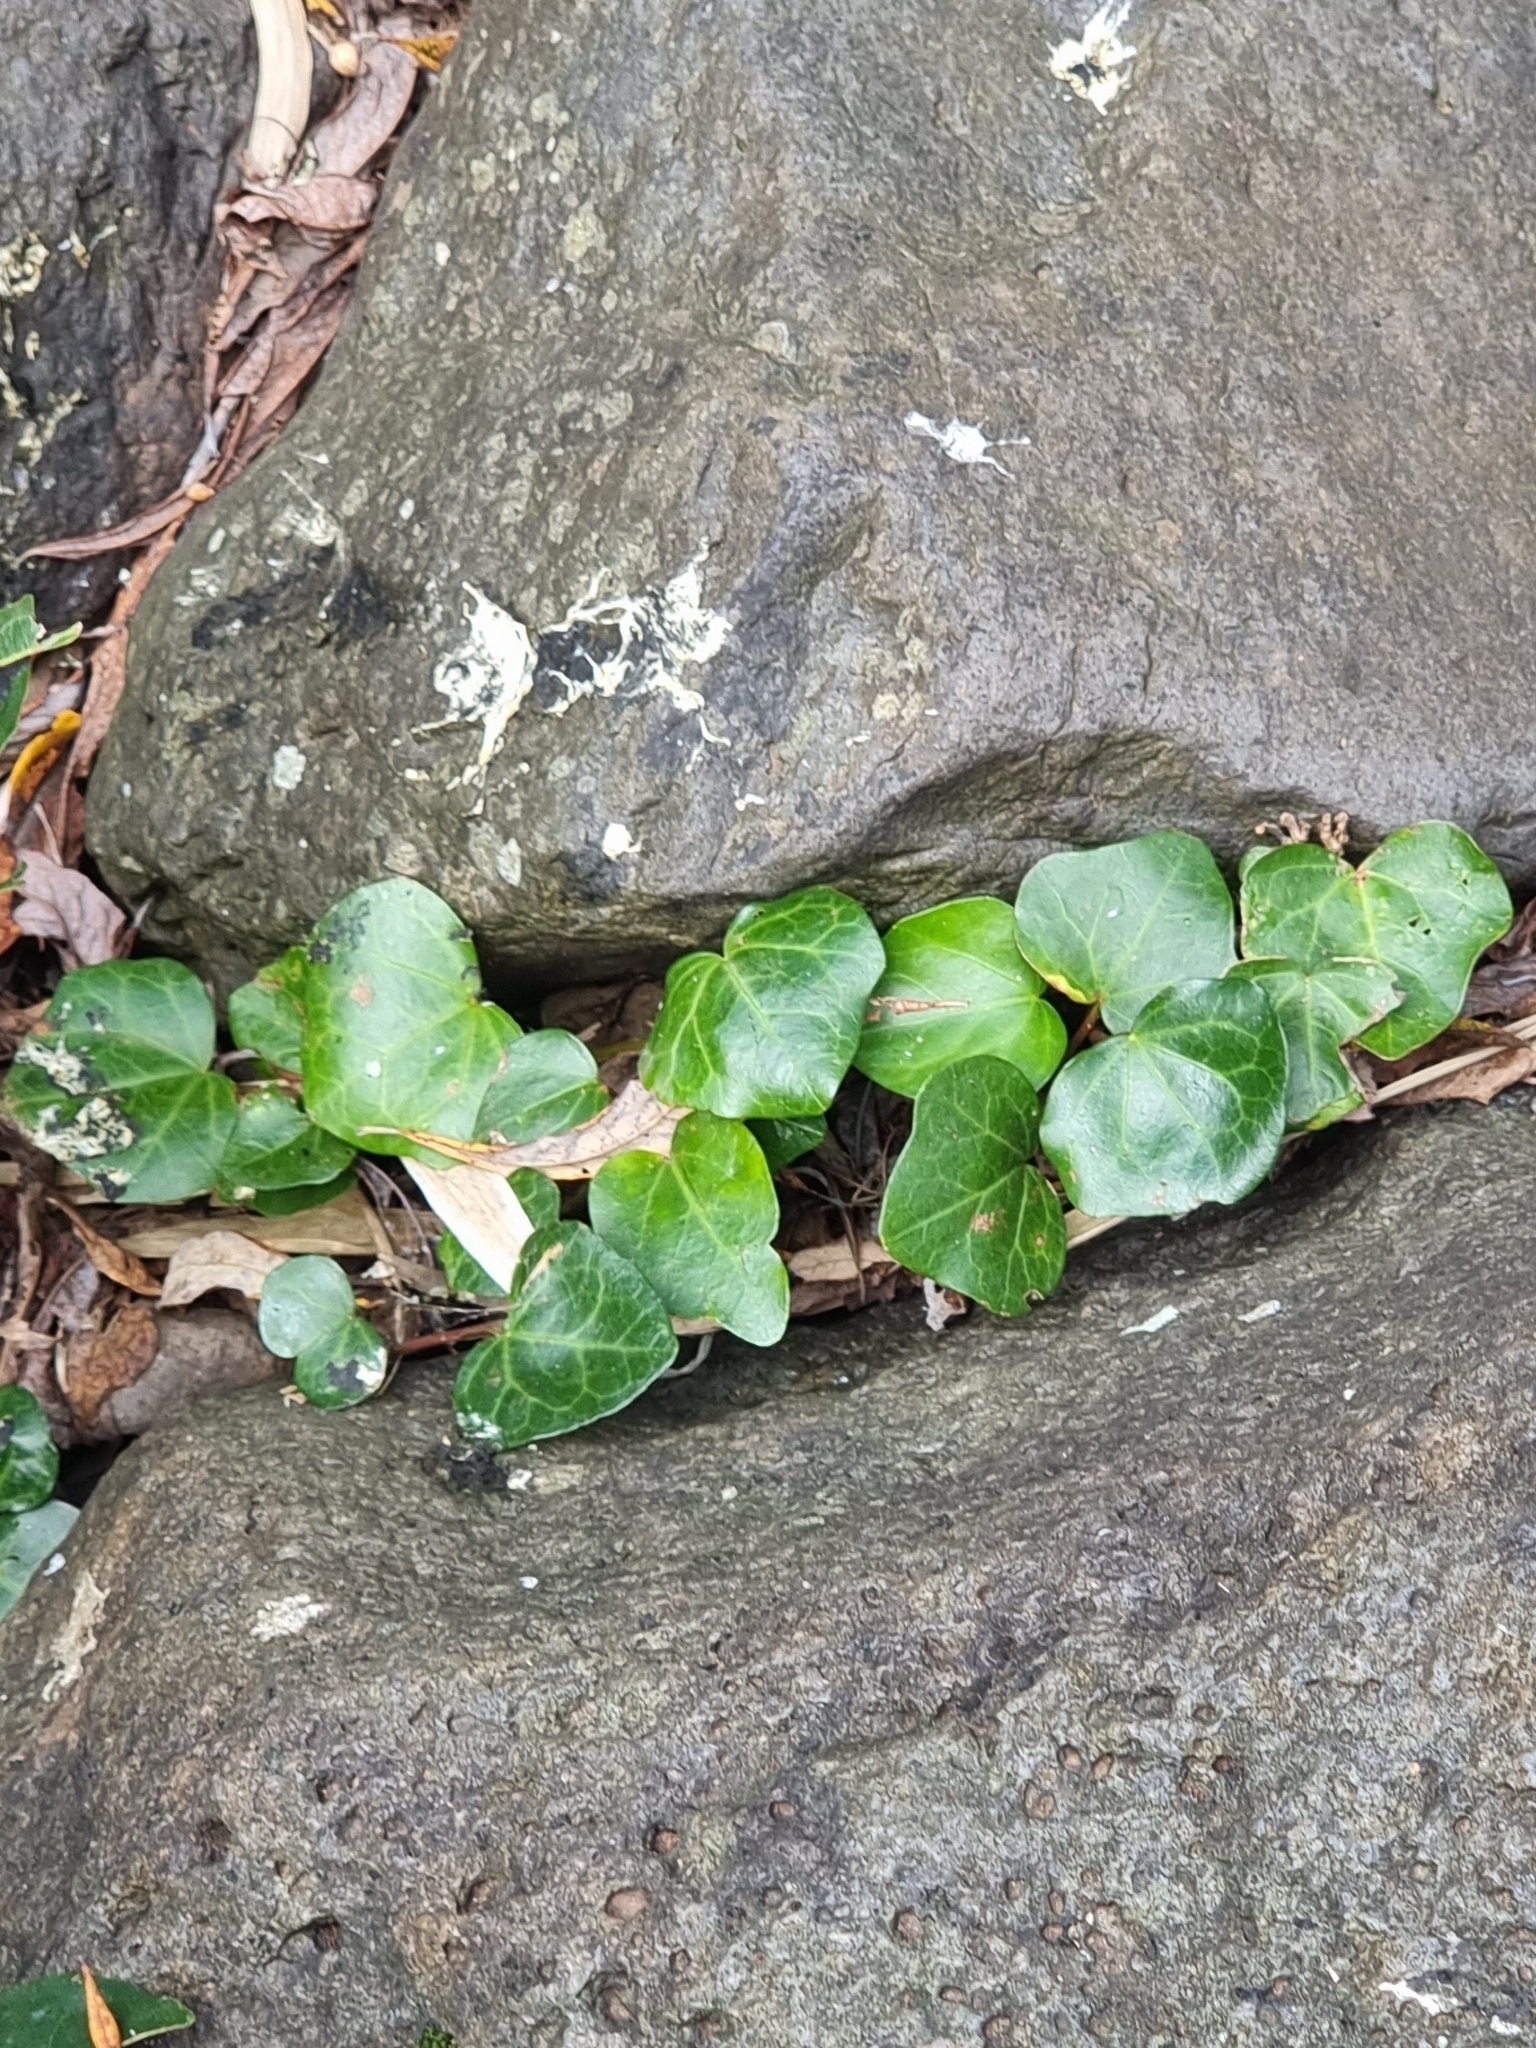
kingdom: Plantae
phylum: Tracheophyta
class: Magnoliopsida
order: Apiales
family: Araliaceae
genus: Hedera
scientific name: Hedera maderensis
